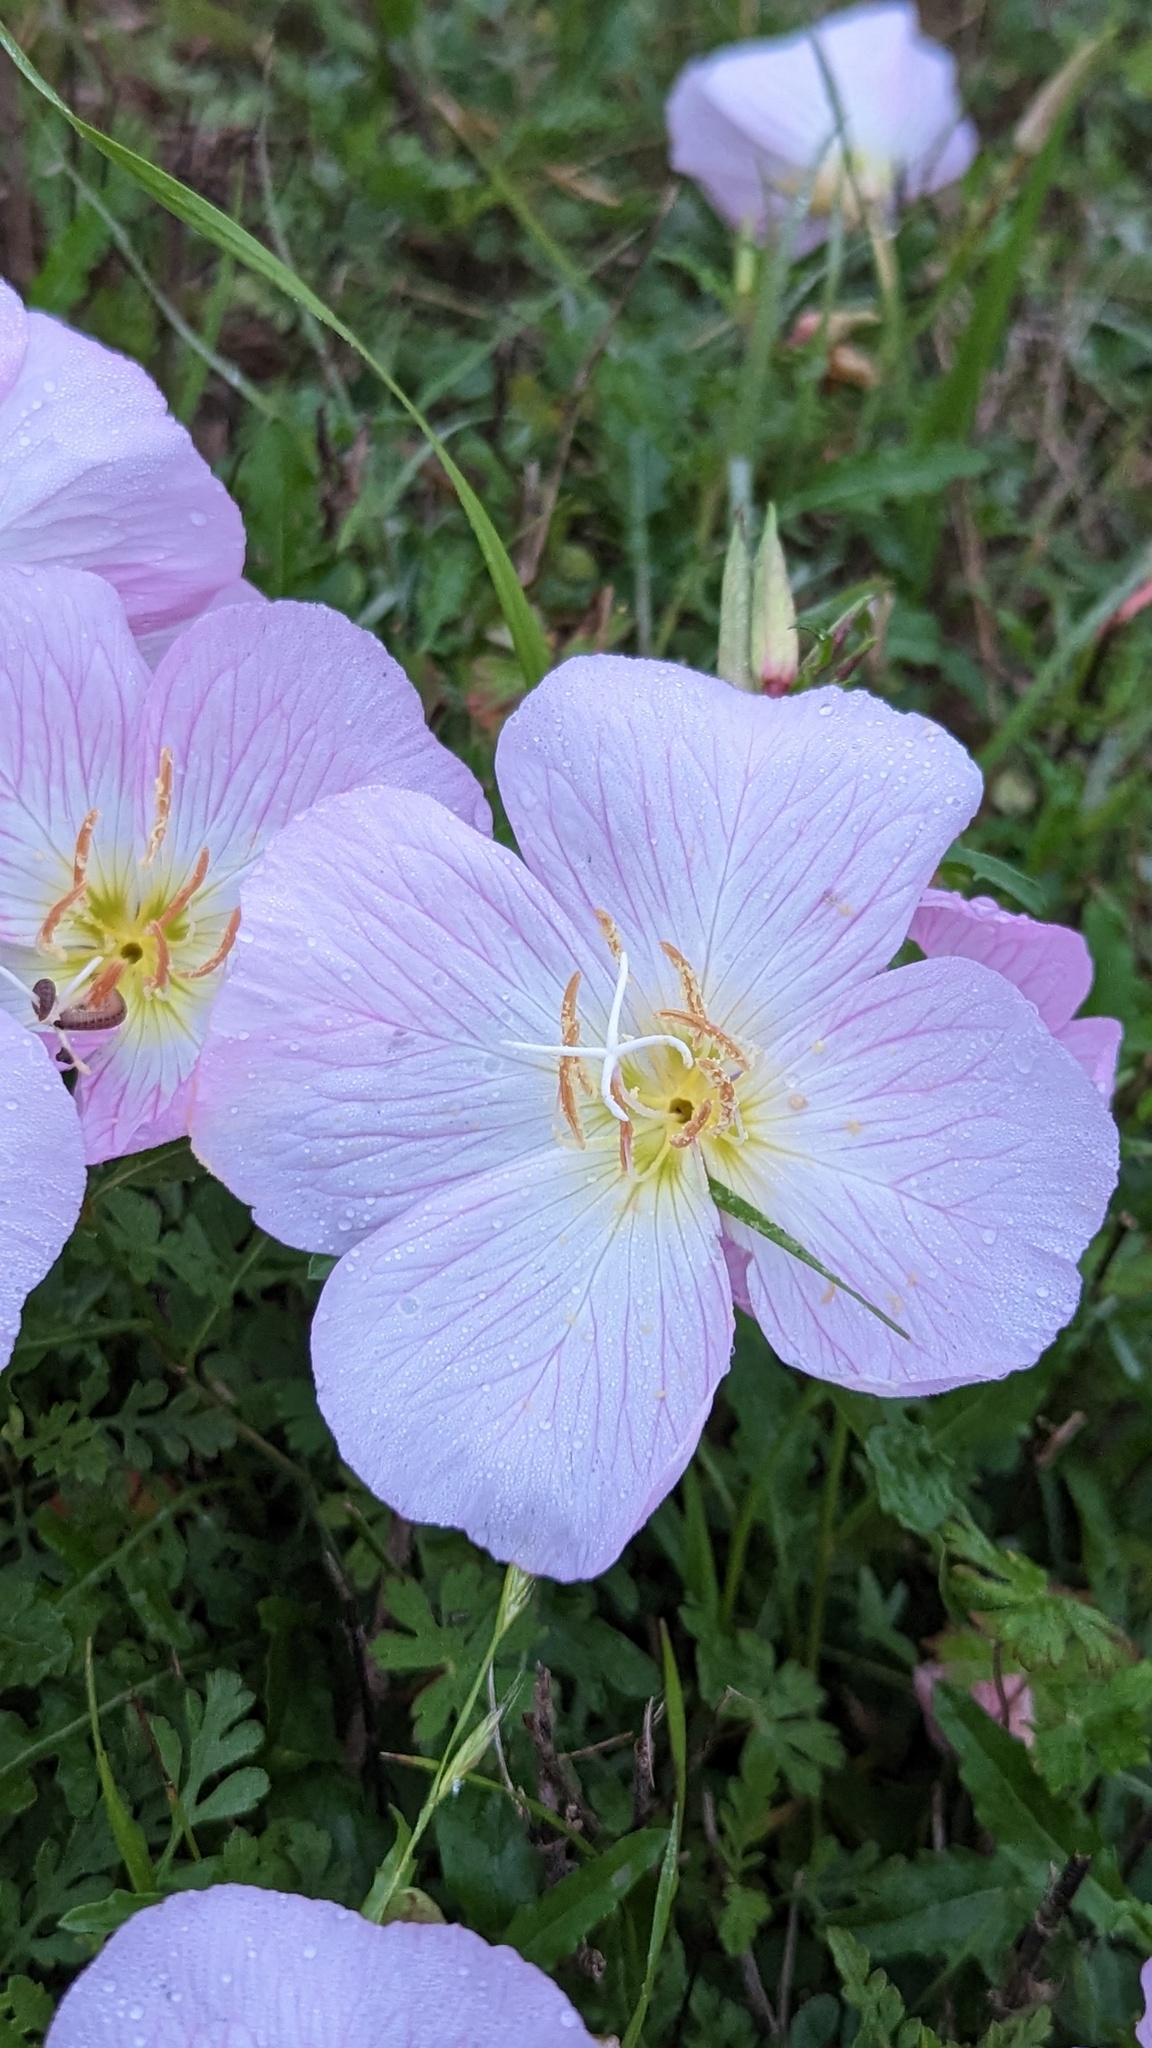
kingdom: Plantae
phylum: Tracheophyta
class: Magnoliopsida
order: Myrtales
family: Onagraceae
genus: Oenothera
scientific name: Oenothera speciosa
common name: White evening-primrose
